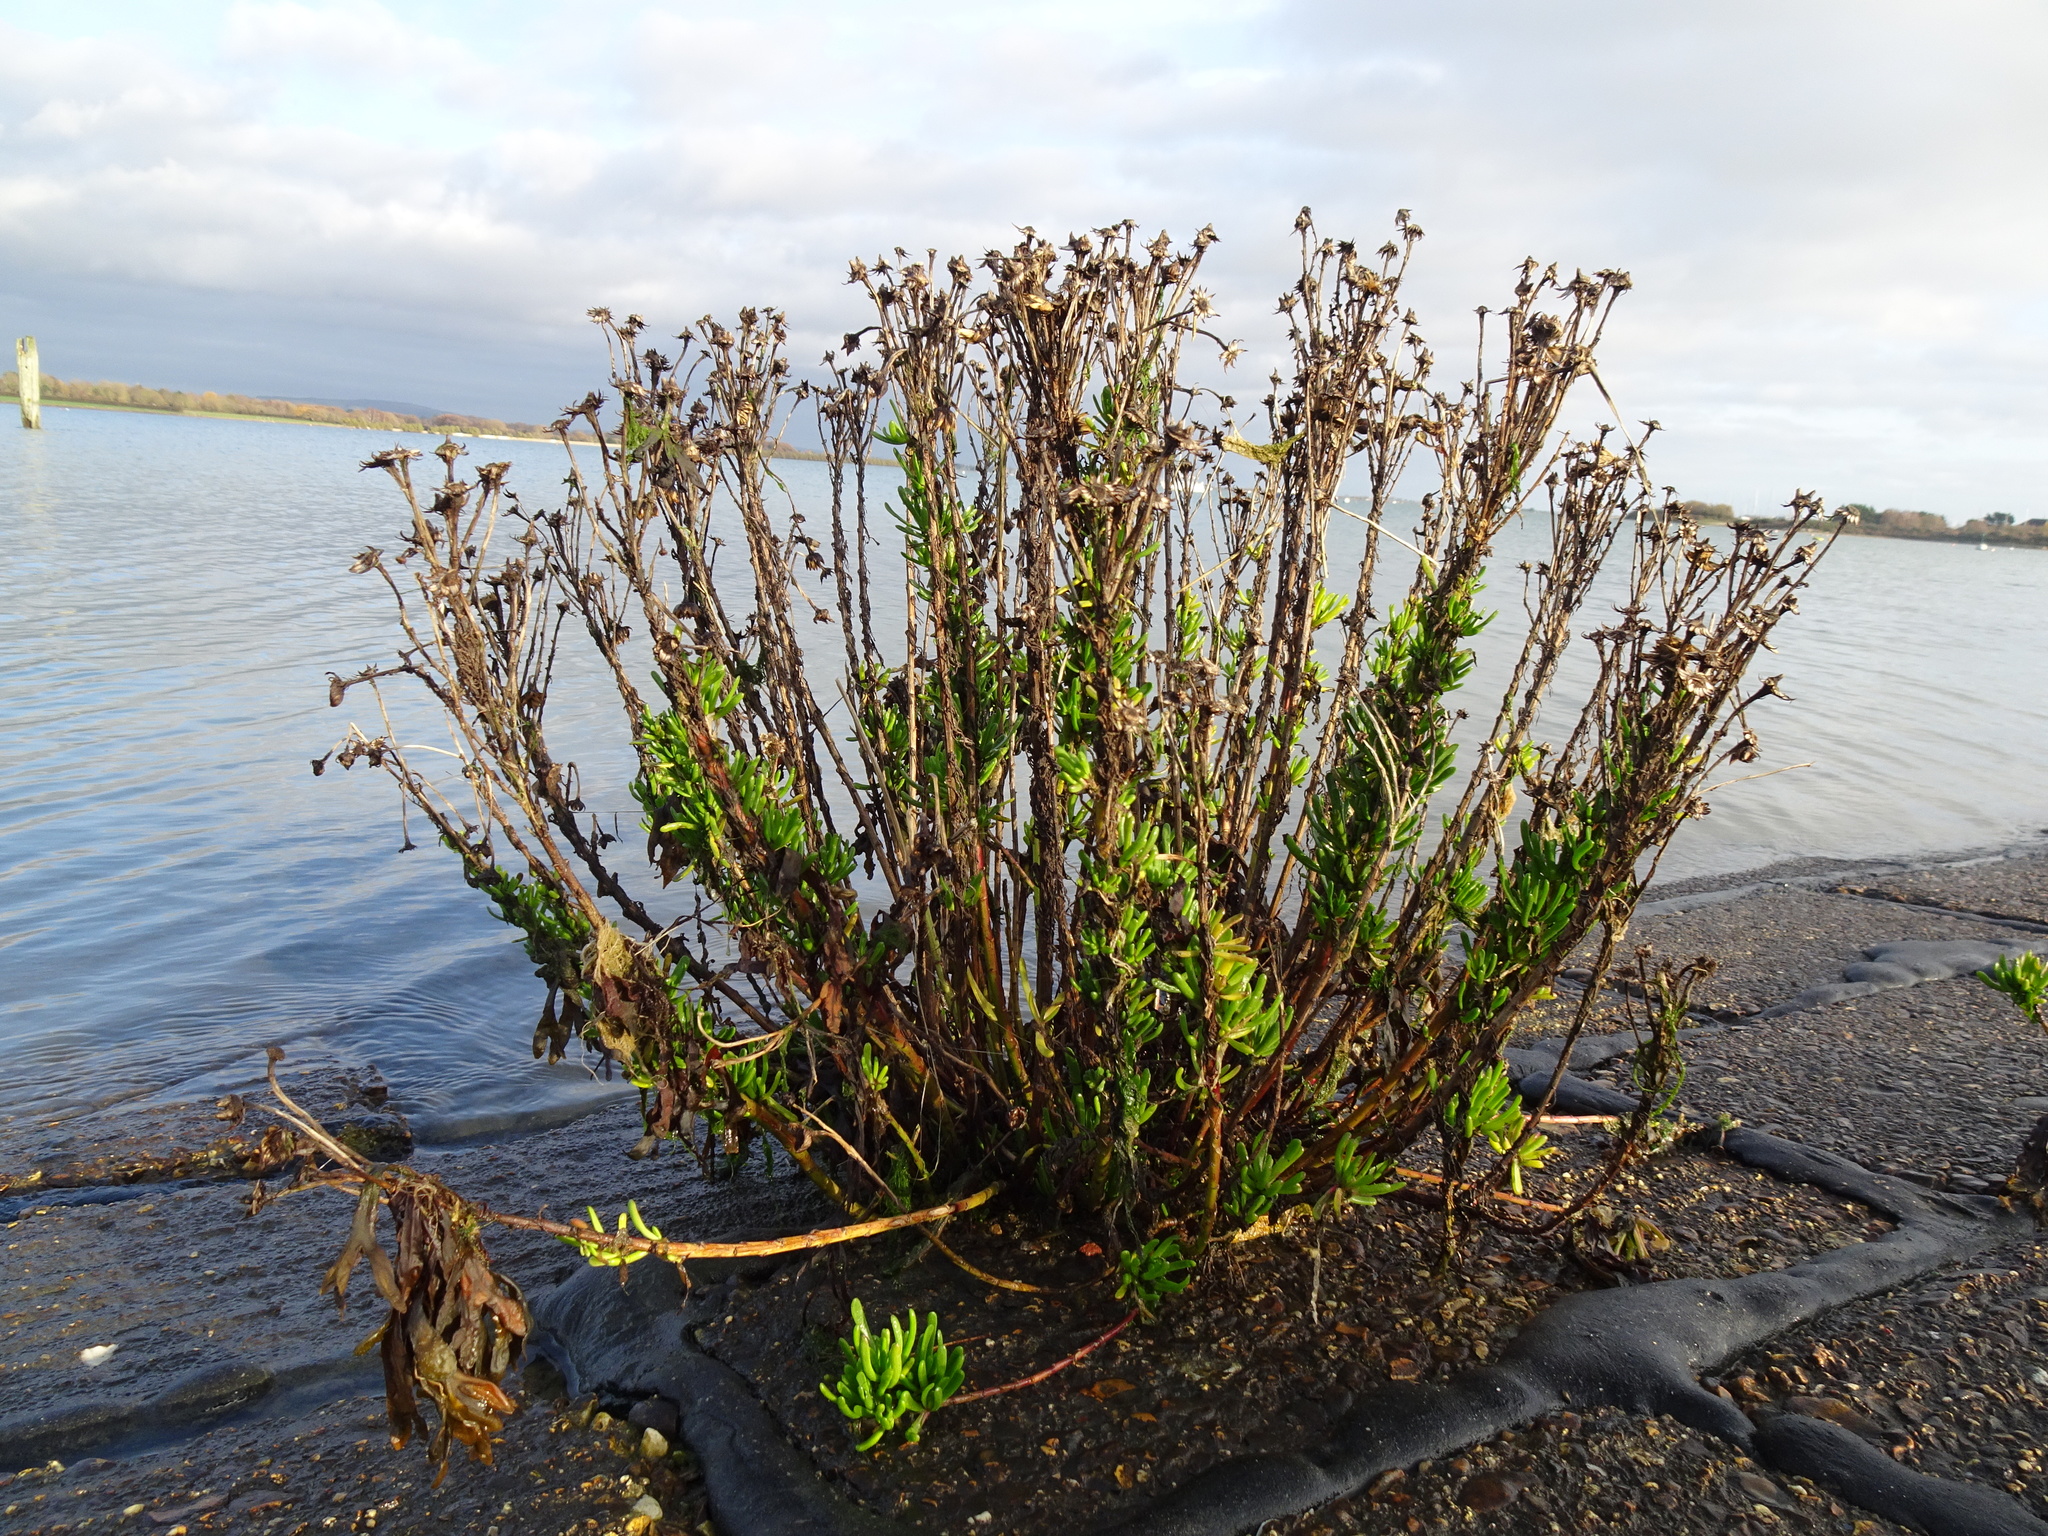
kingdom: Plantae
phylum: Tracheophyta
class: Magnoliopsida
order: Asterales
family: Asteraceae
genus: Limbarda
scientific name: Limbarda crithmoides
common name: Golden samphire
